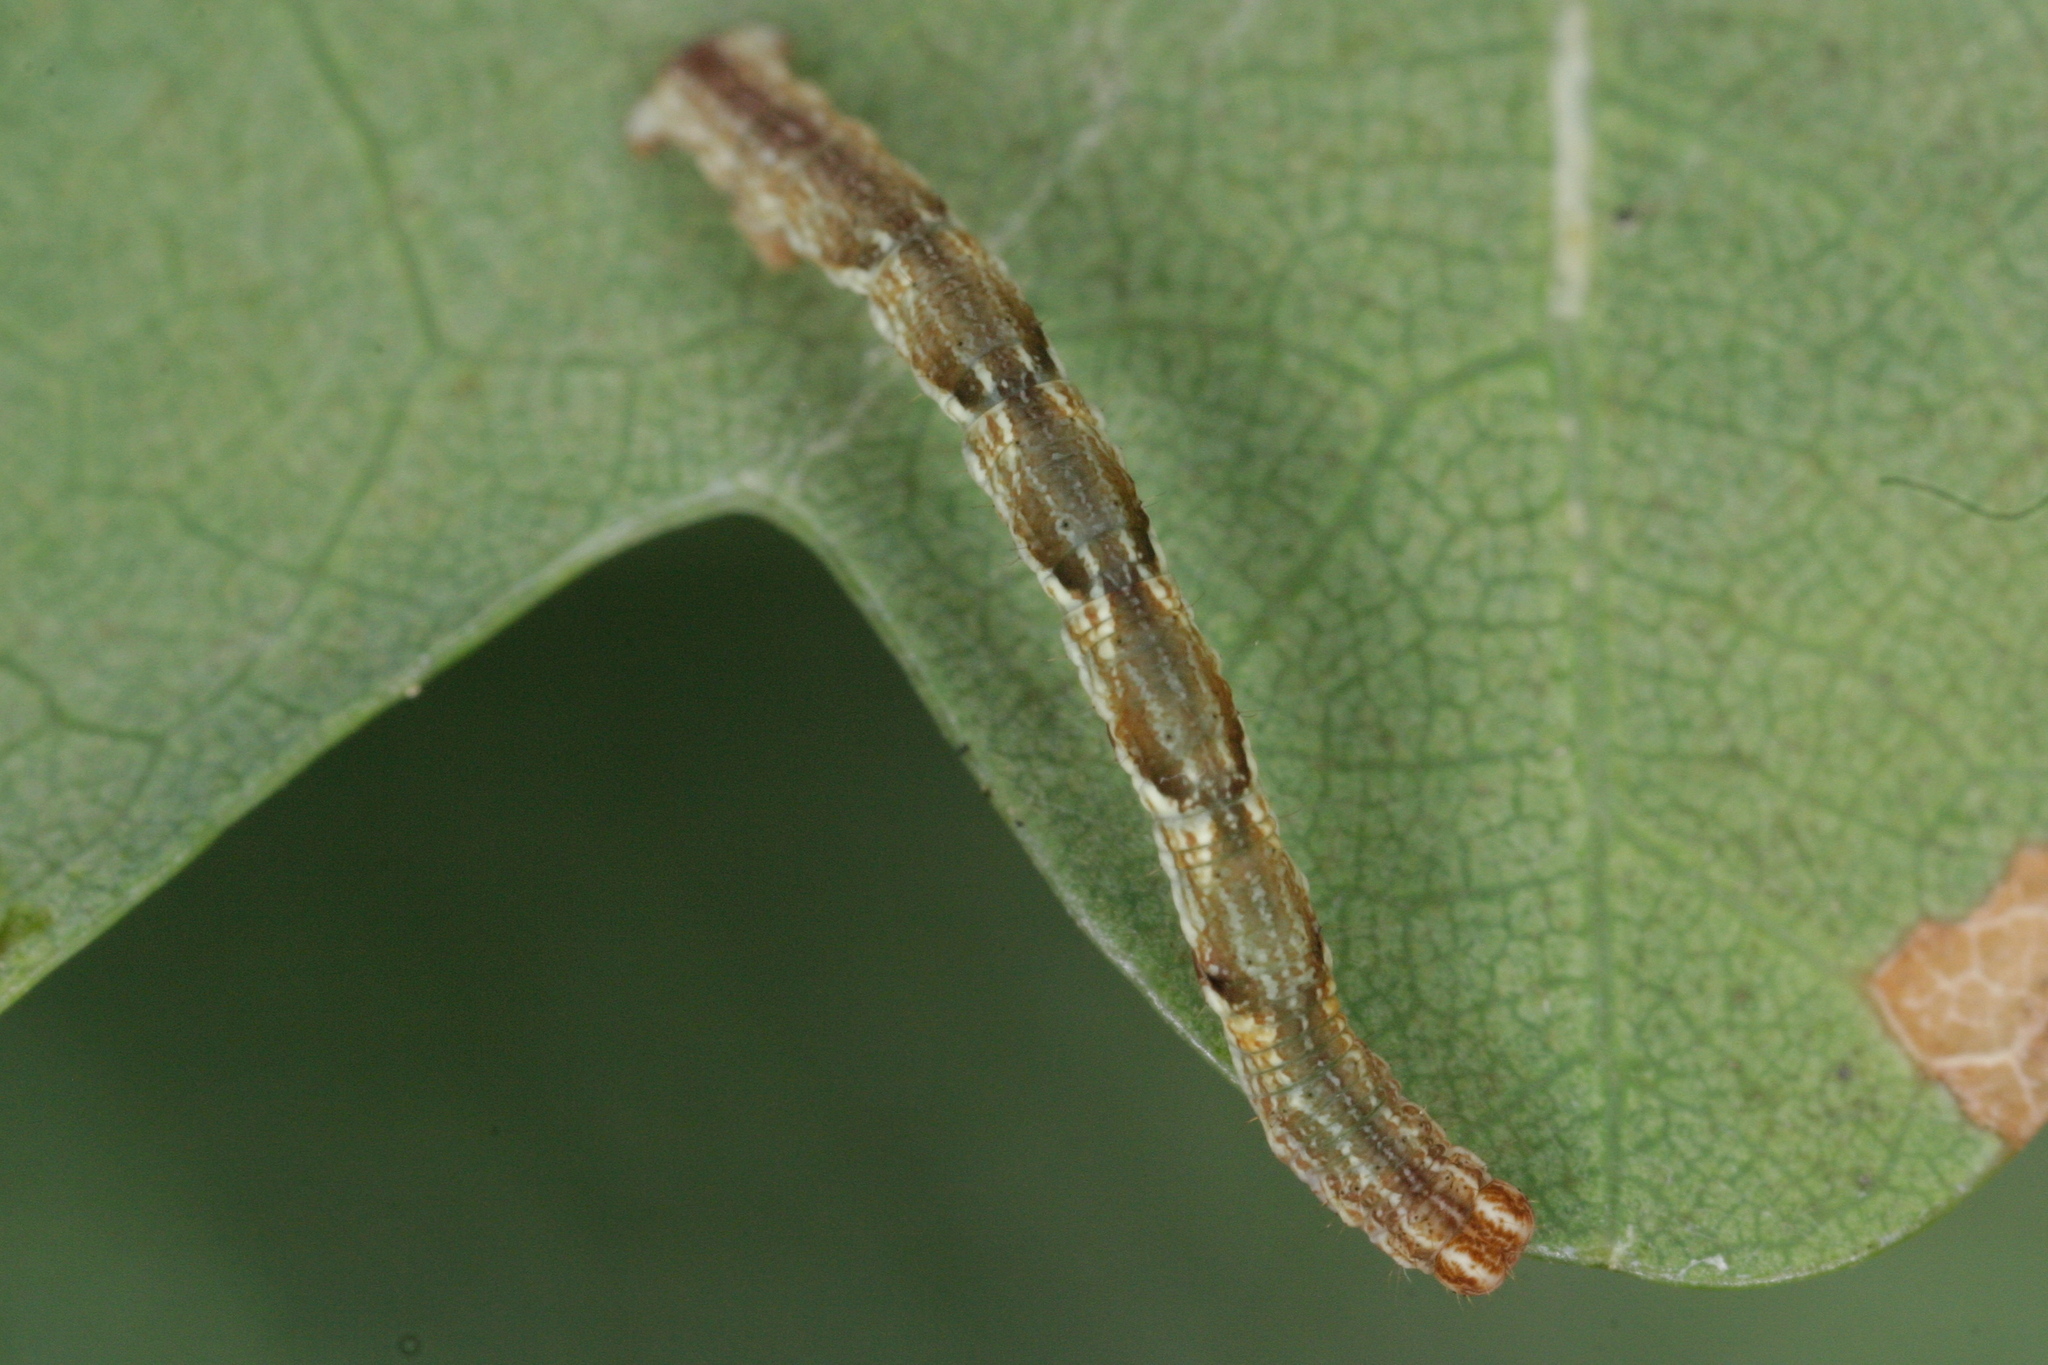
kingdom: Animalia
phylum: Arthropoda
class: Insecta
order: Lepidoptera
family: Geometridae
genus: Cyclophora
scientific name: Cyclophora punctaria
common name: Maiden's blush
